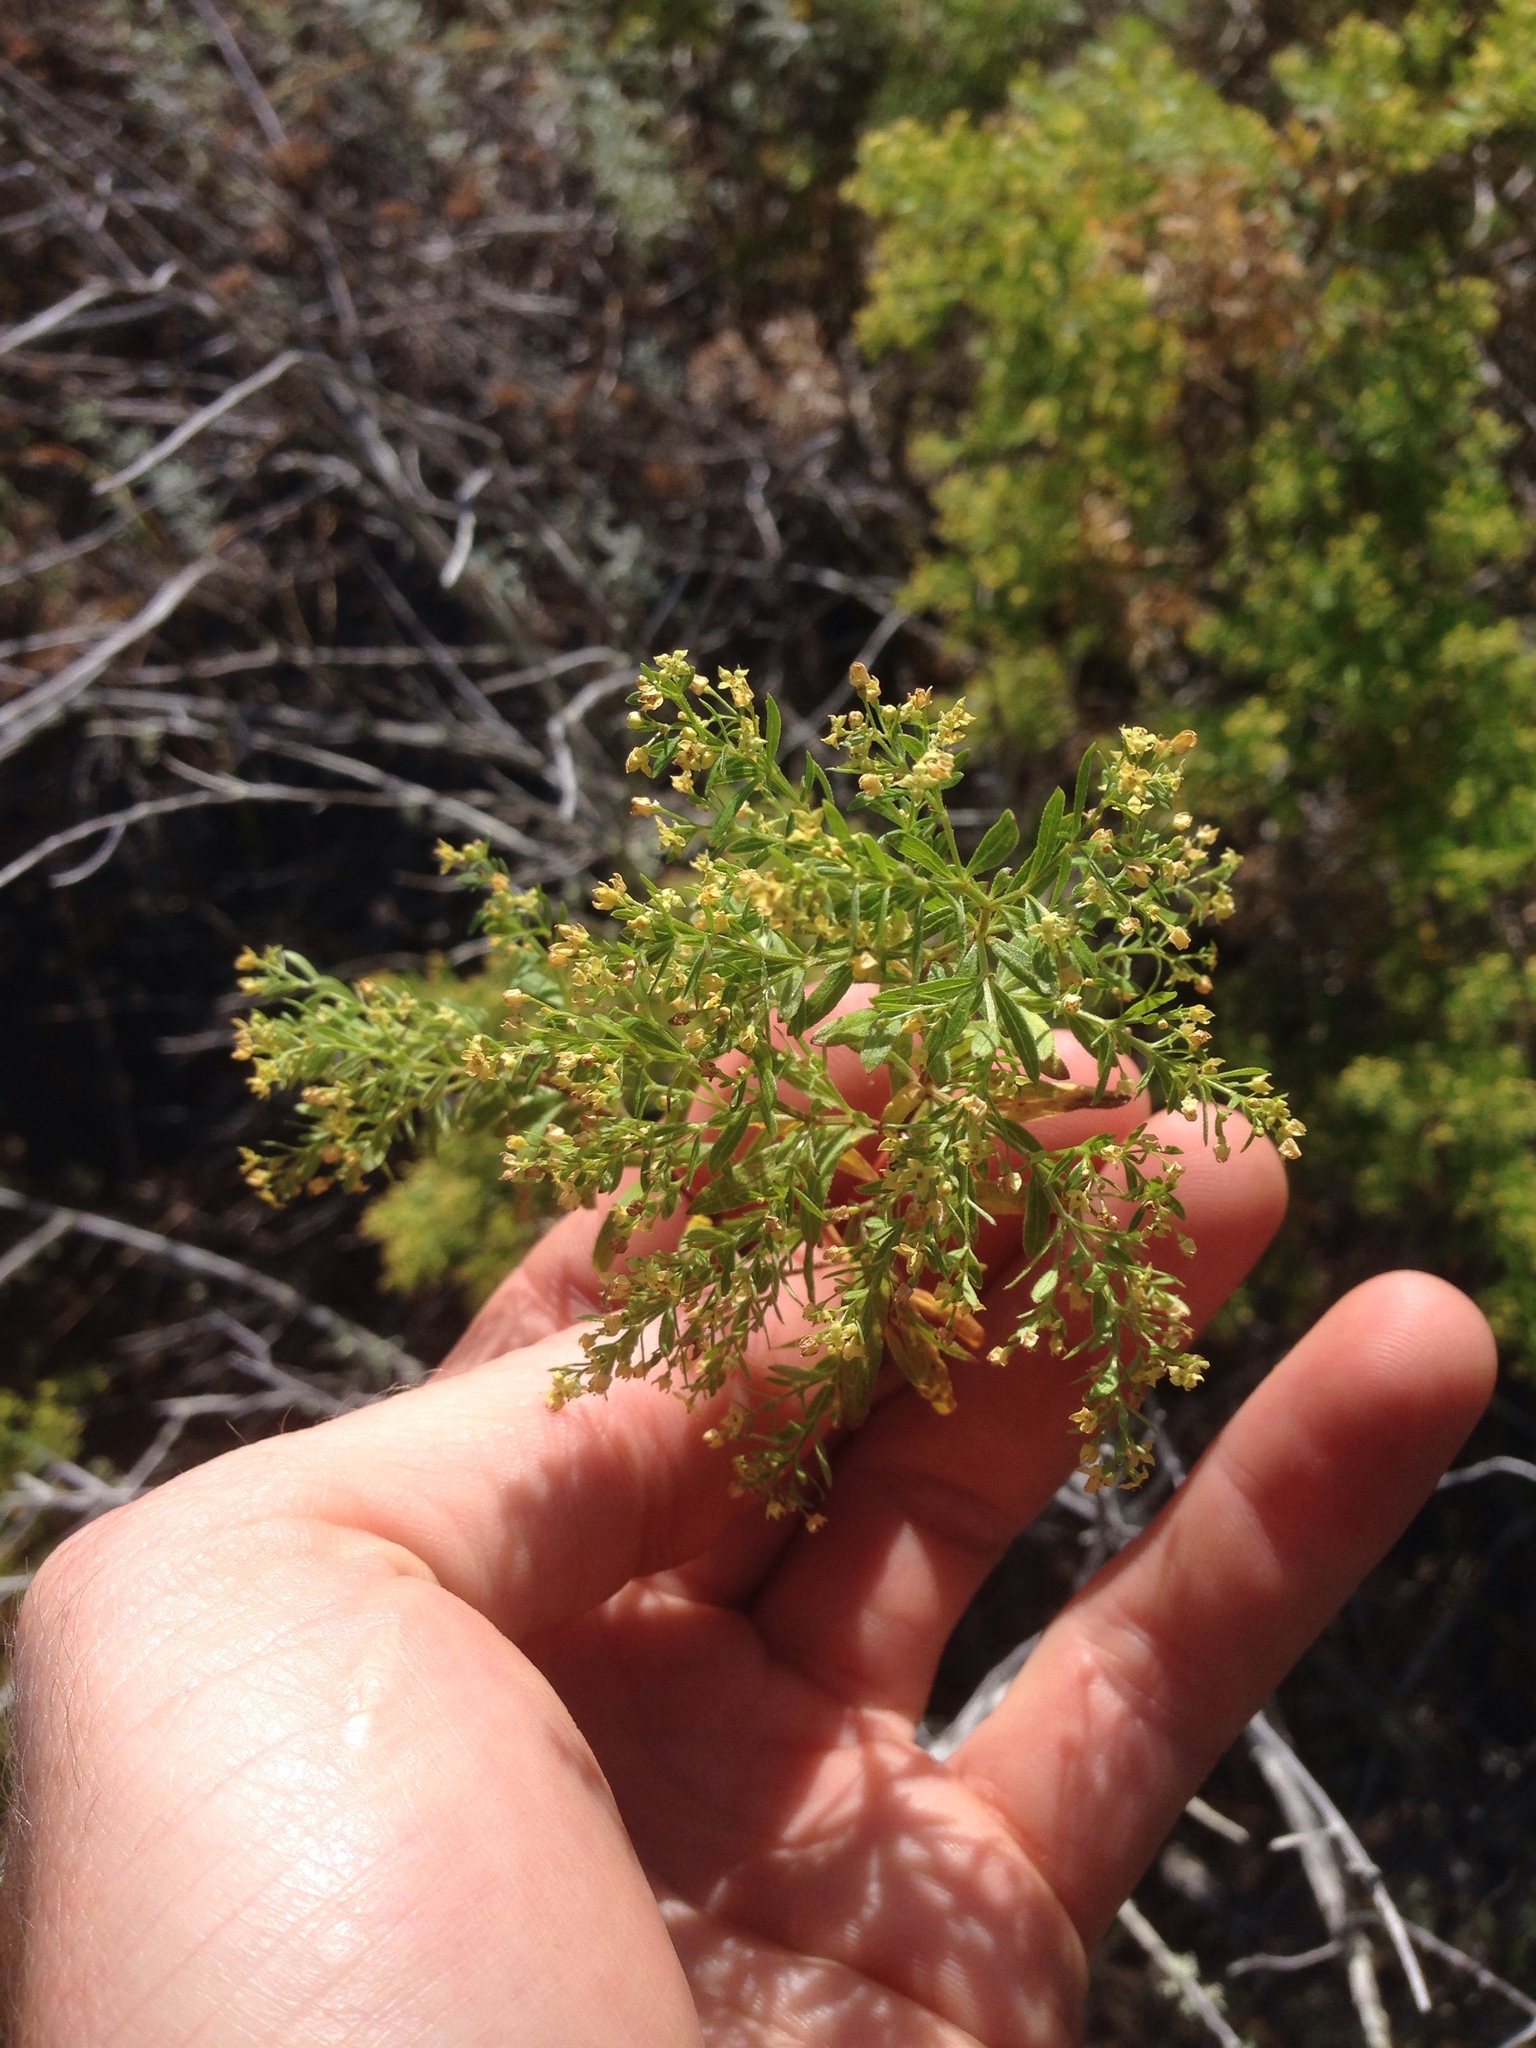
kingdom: Plantae
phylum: Tracheophyta
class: Magnoliopsida
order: Gentianales
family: Rubiaceae
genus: Galium
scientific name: Galium catalinense
